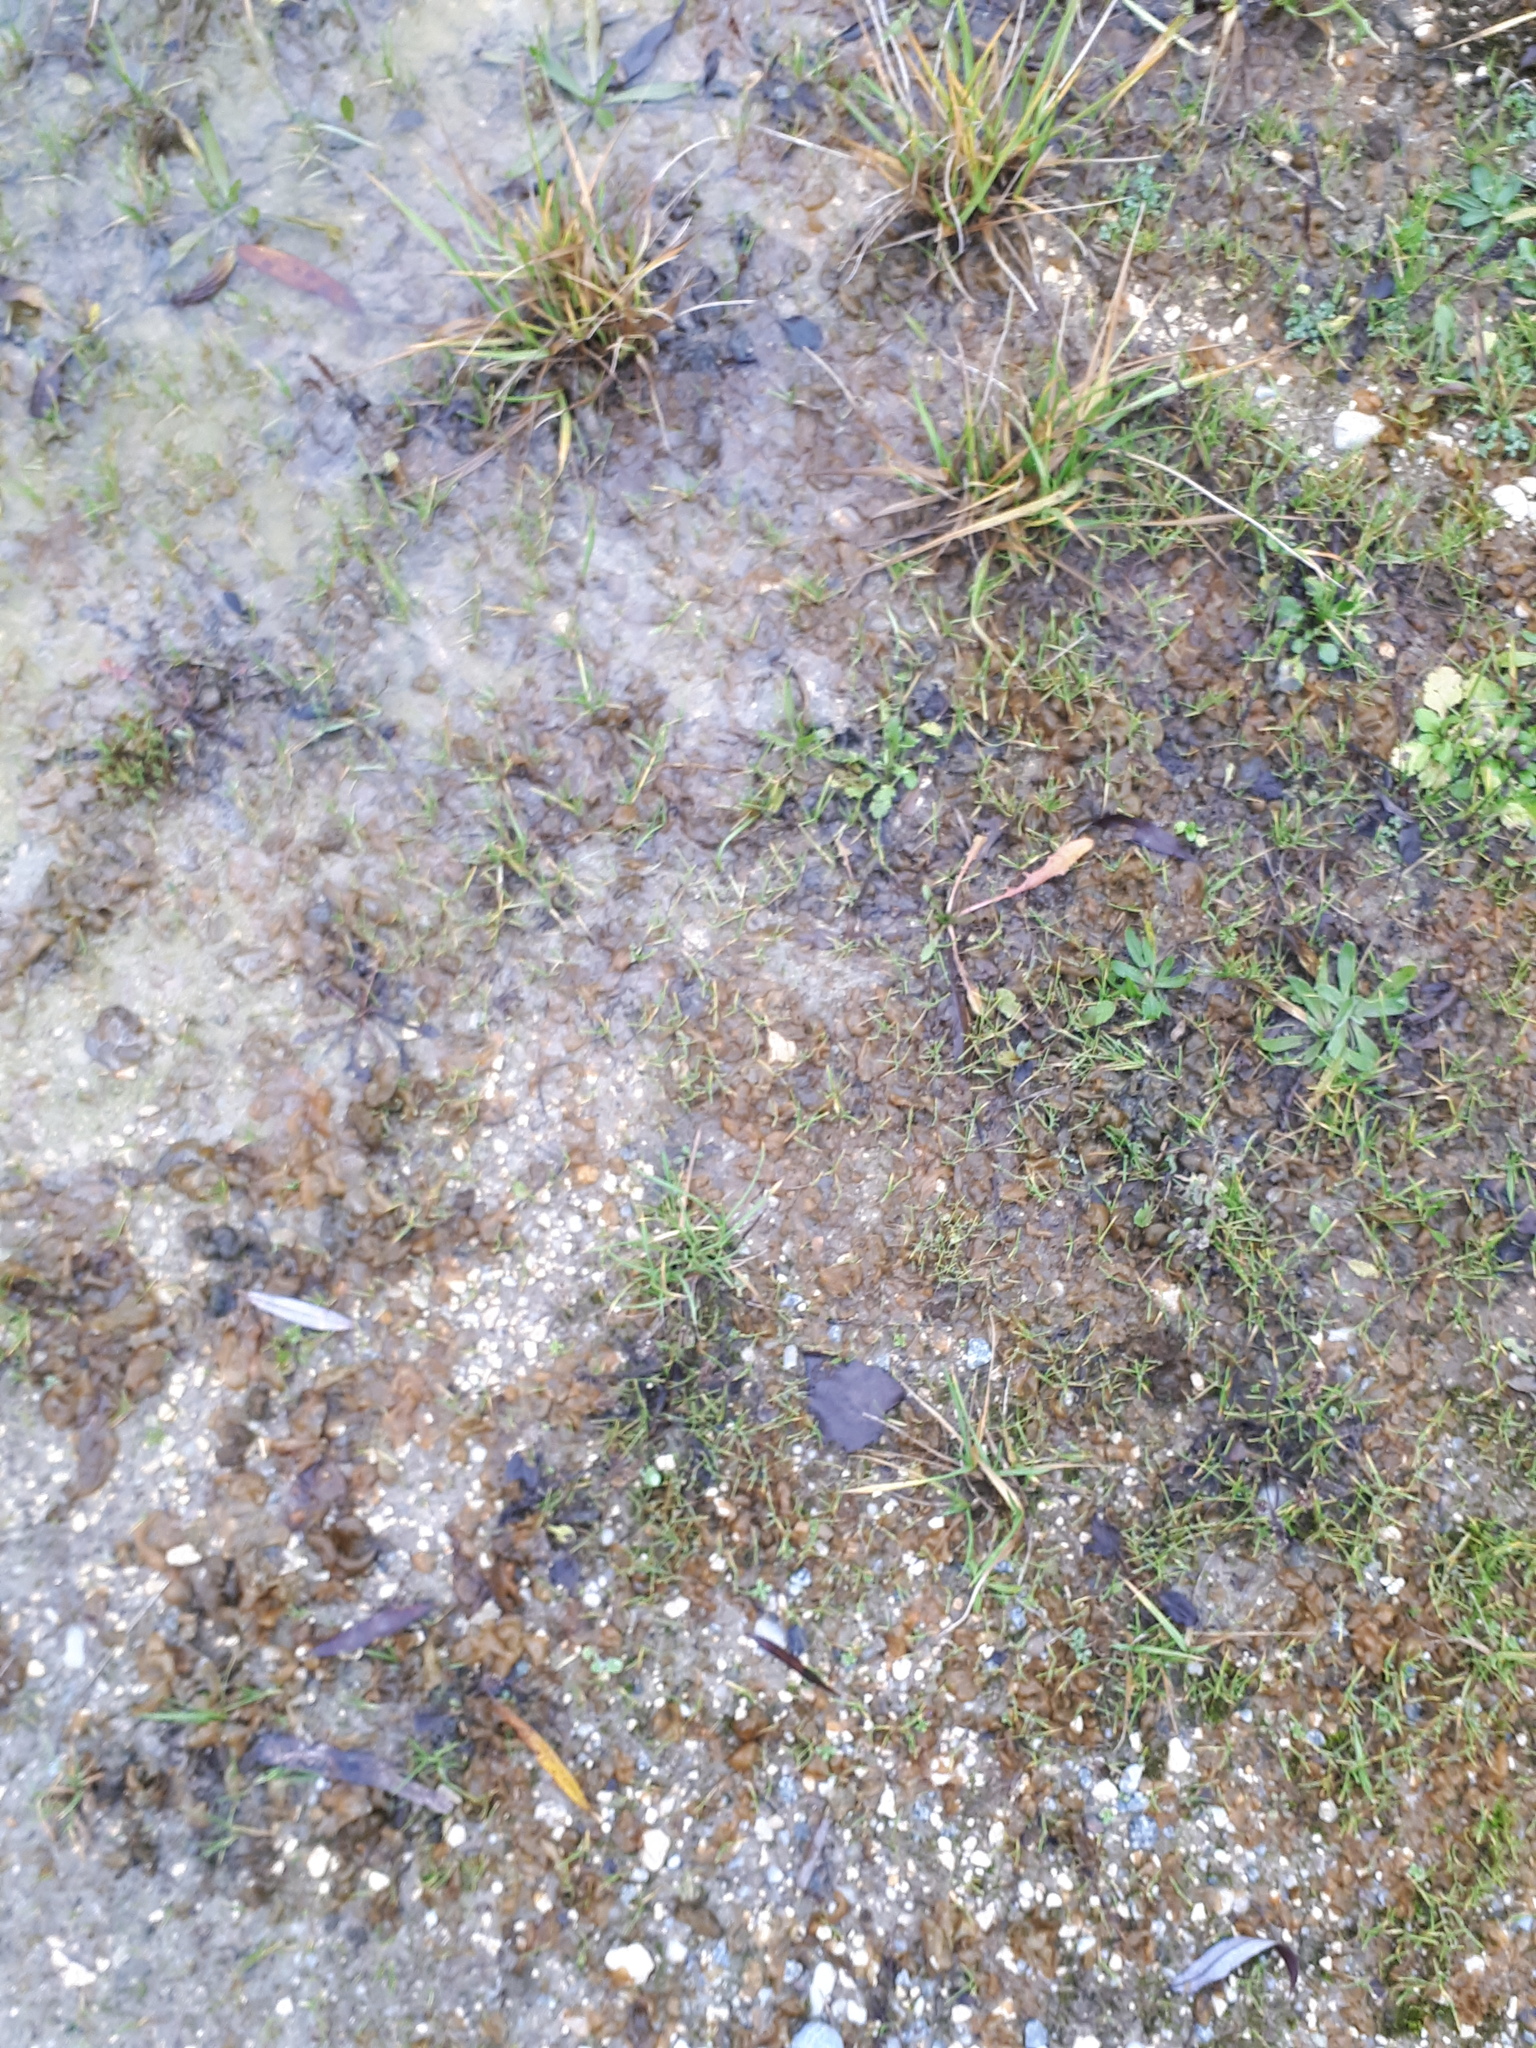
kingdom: Bacteria
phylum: Cyanobacteria
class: Cyanobacteriia
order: Cyanobacteriales
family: Nostocaceae
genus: Nostoc
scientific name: Nostoc commune
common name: Star jelly
